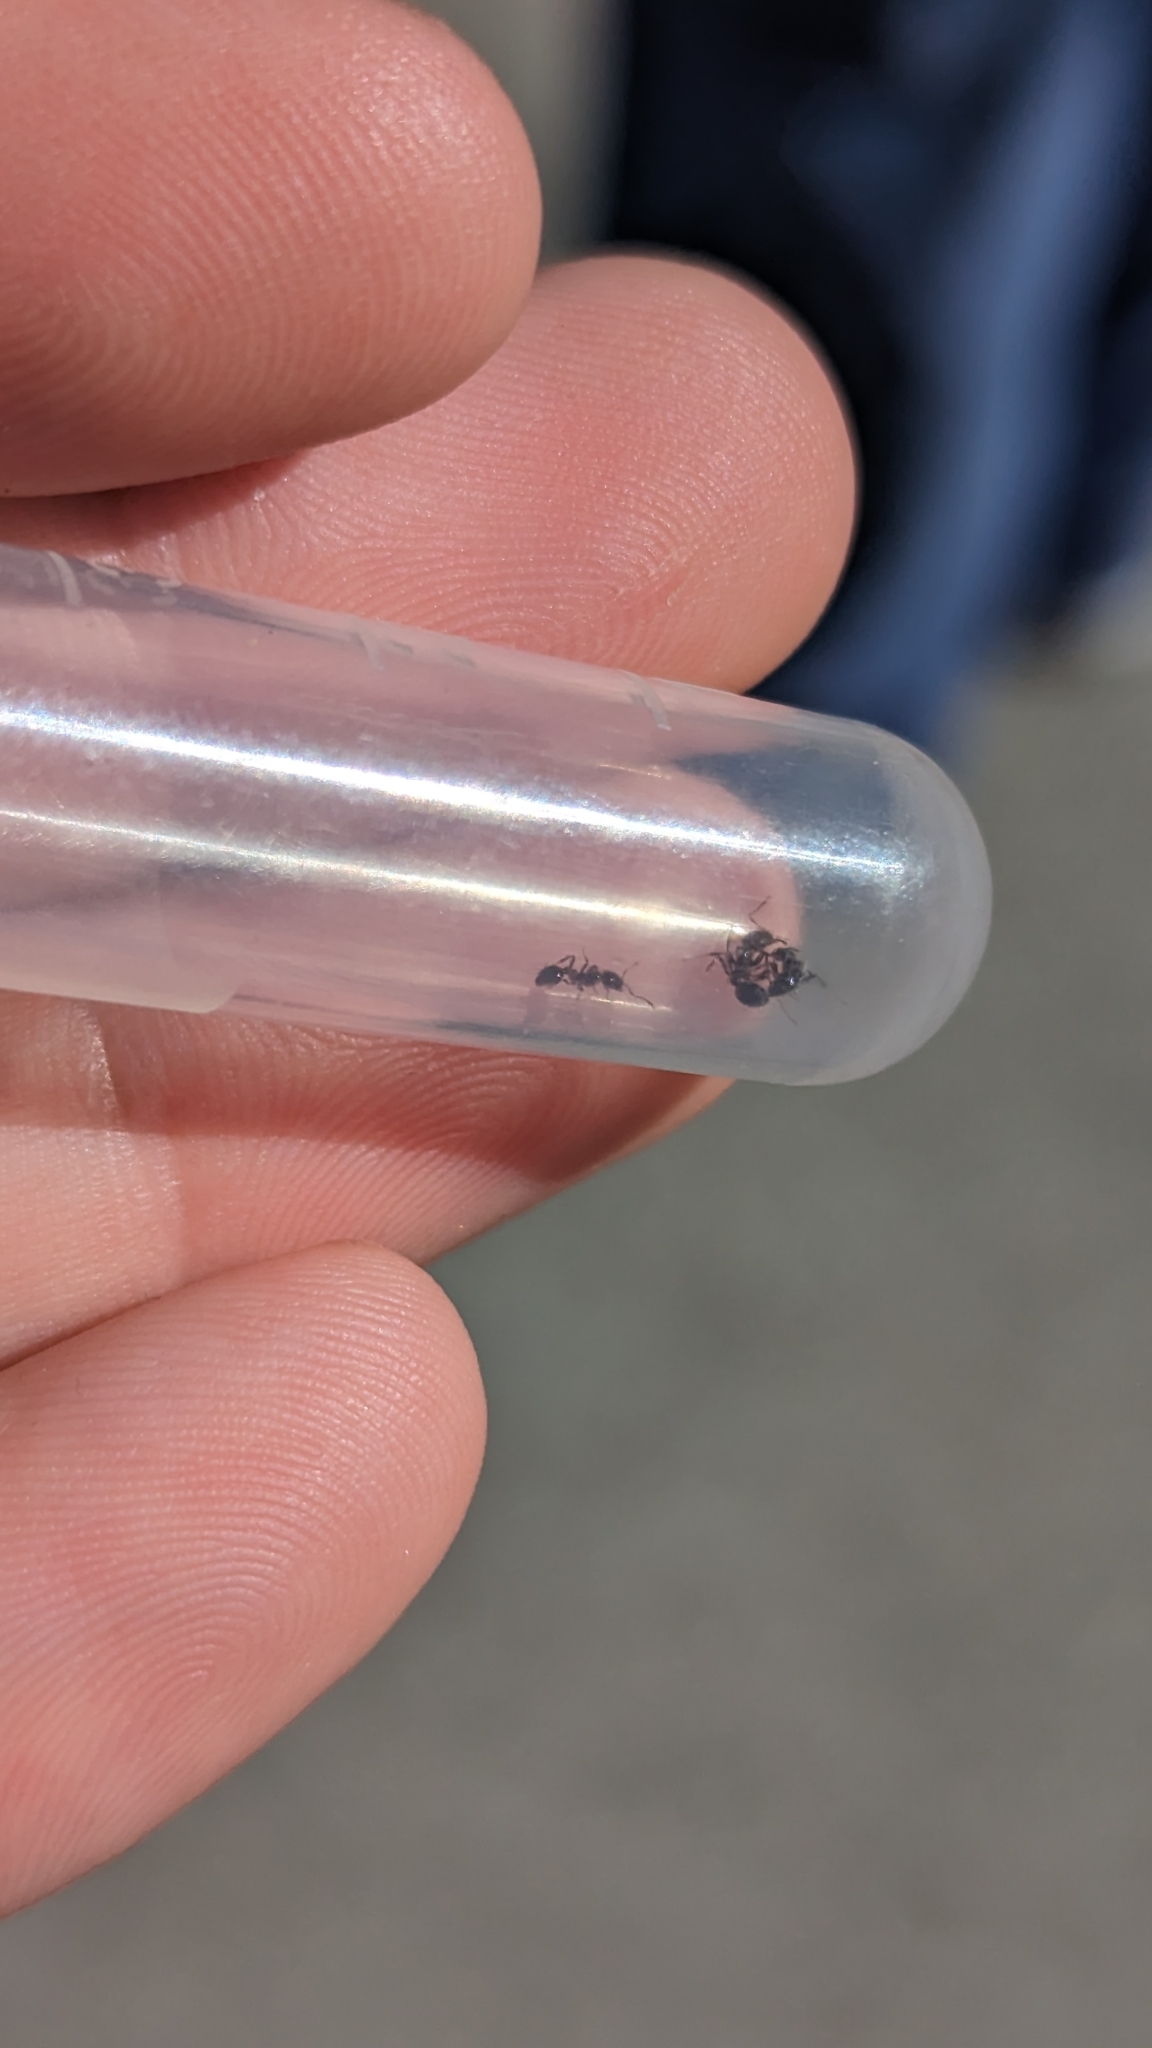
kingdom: Animalia
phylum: Arthropoda
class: Insecta
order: Hymenoptera
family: Formicidae
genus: Solenopsis
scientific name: Solenopsis xyloni
